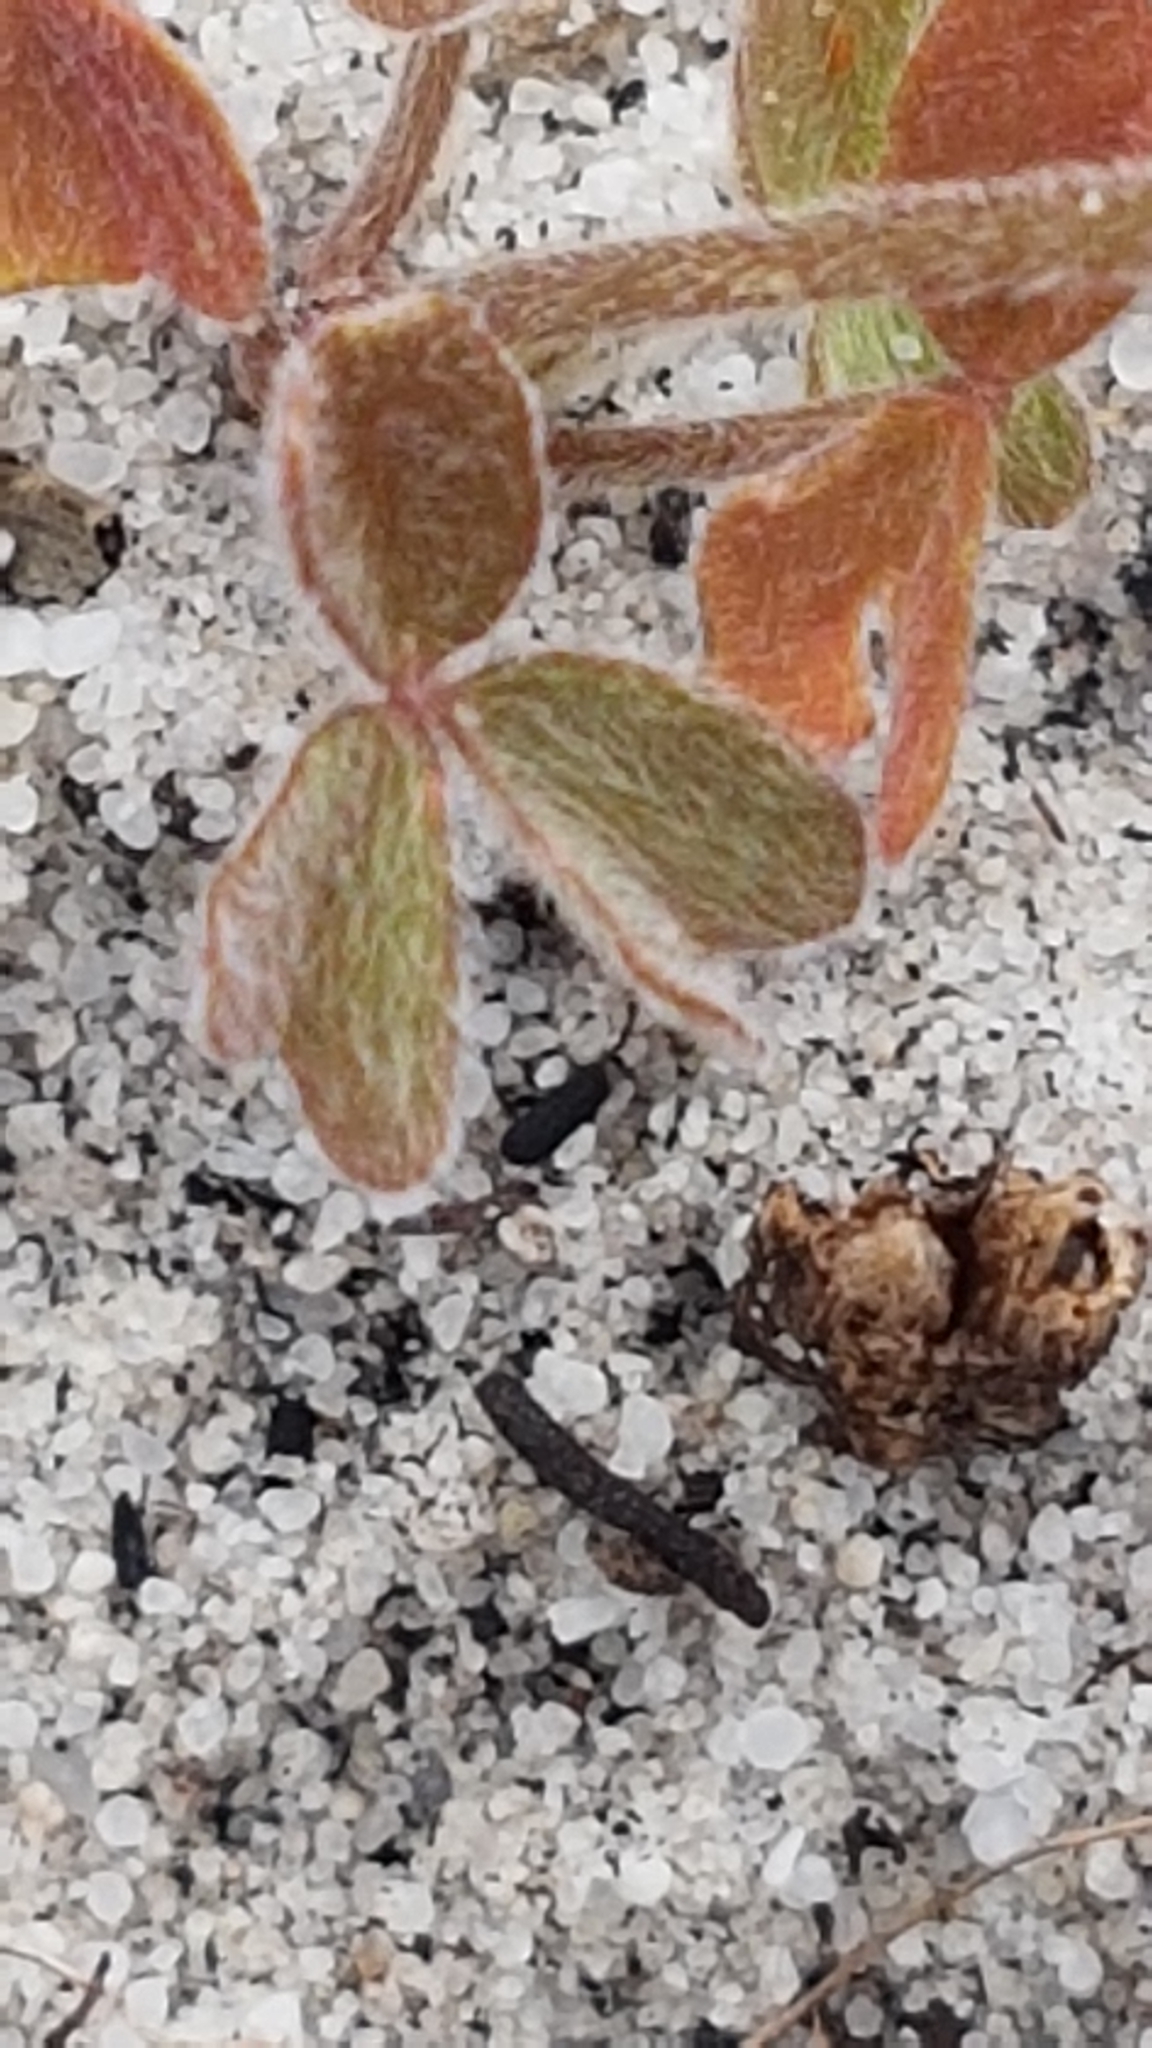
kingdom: Plantae
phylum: Tracheophyta
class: Magnoliopsida
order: Oxalidales
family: Oxalidaceae
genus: Oxalis
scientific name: Oxalis obtusa
